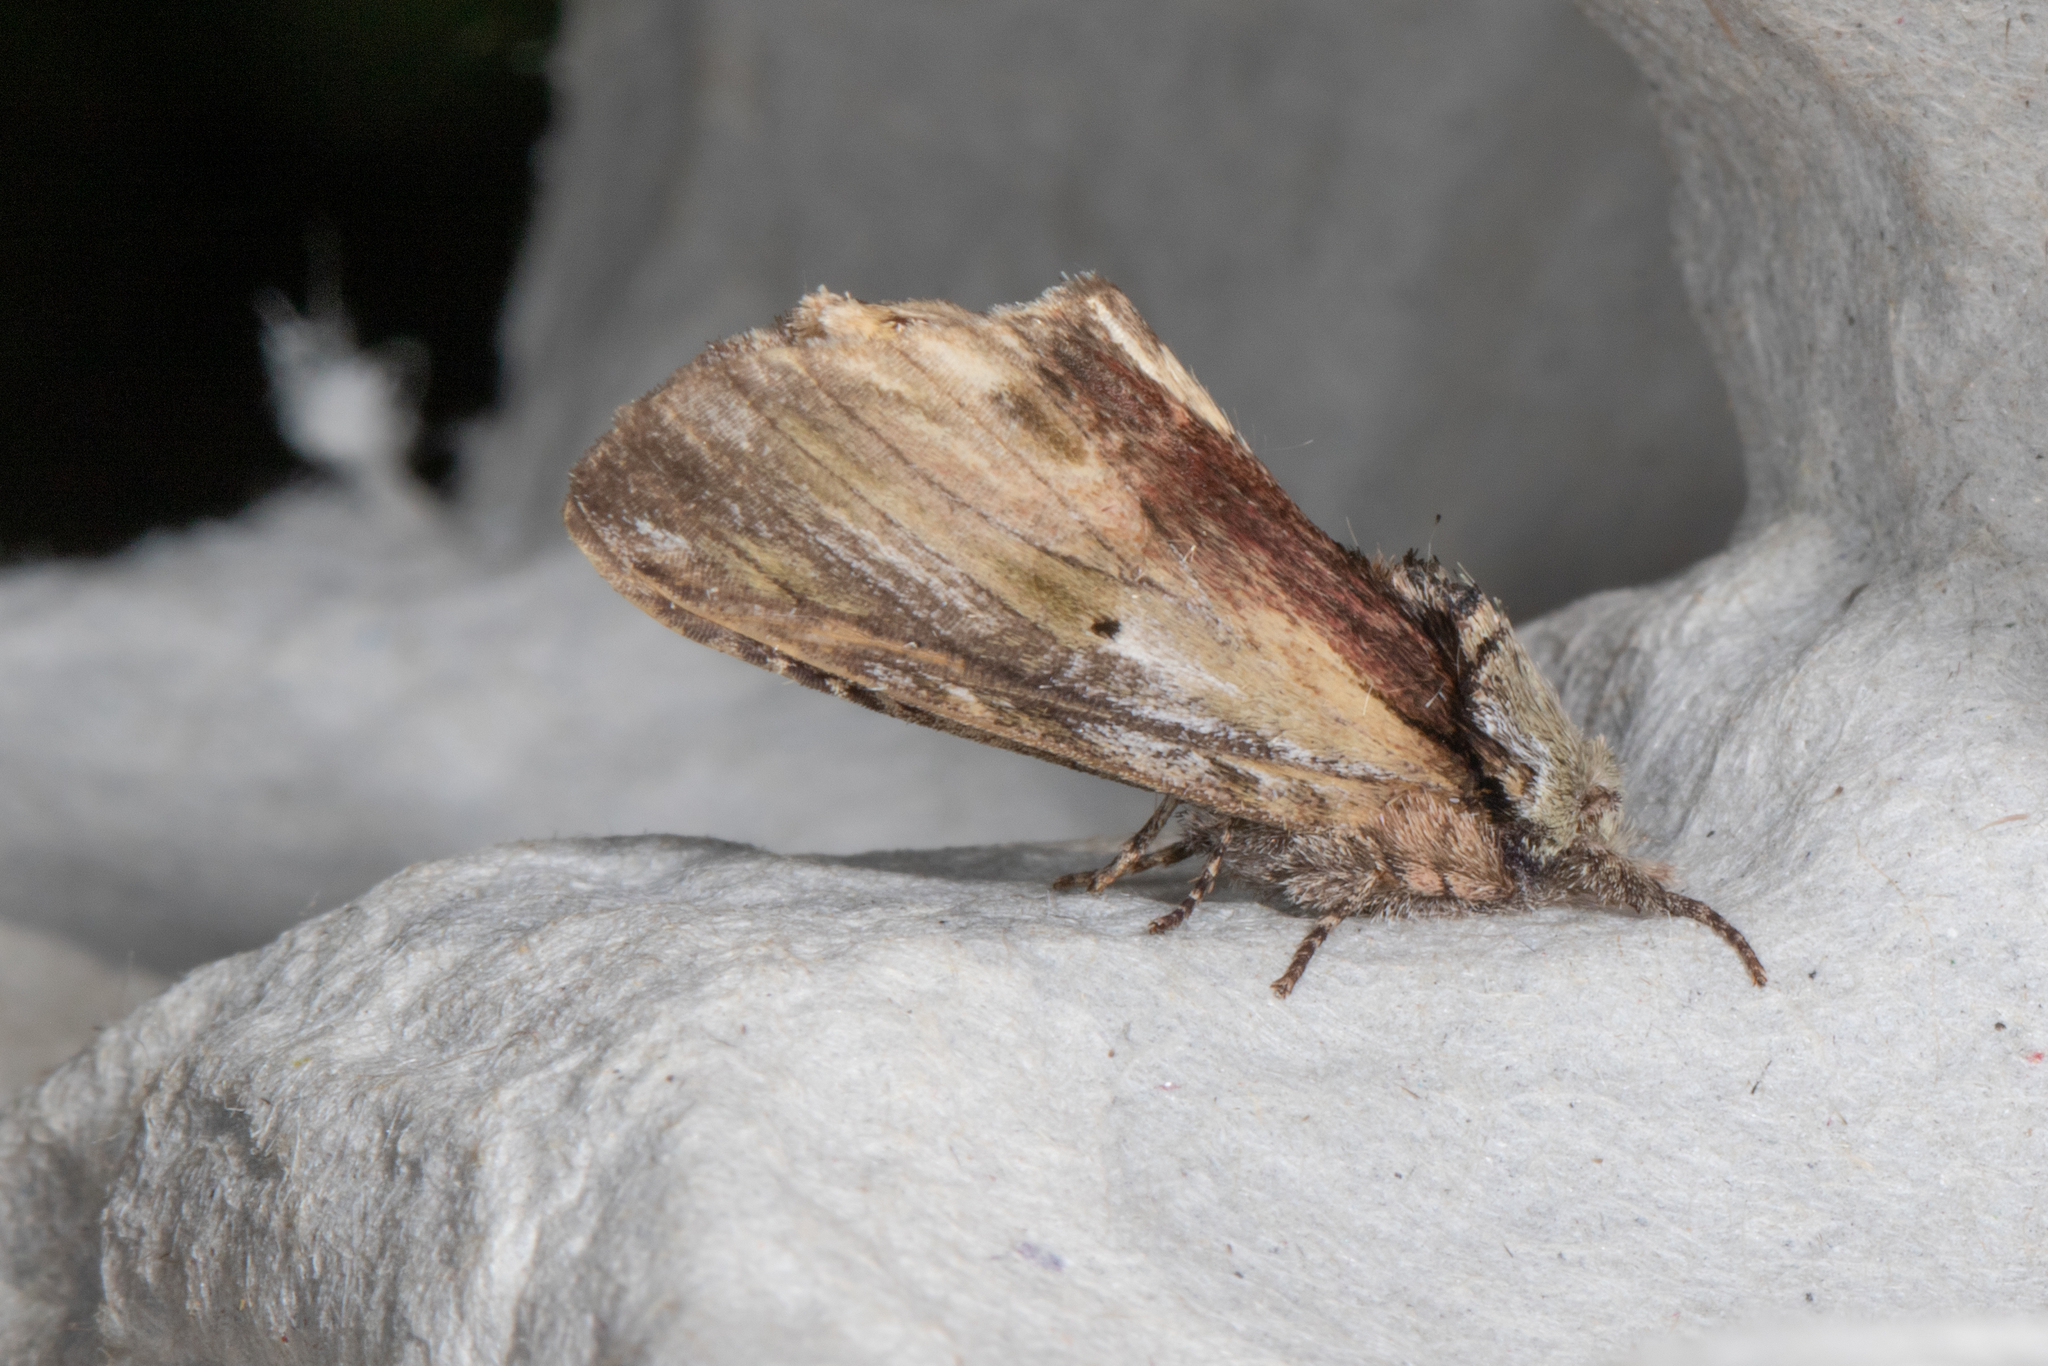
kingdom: Animalia
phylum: Arthropoda
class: Insecta
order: Lepidoptera
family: Notodontidae
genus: Schizura
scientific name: Schizura
